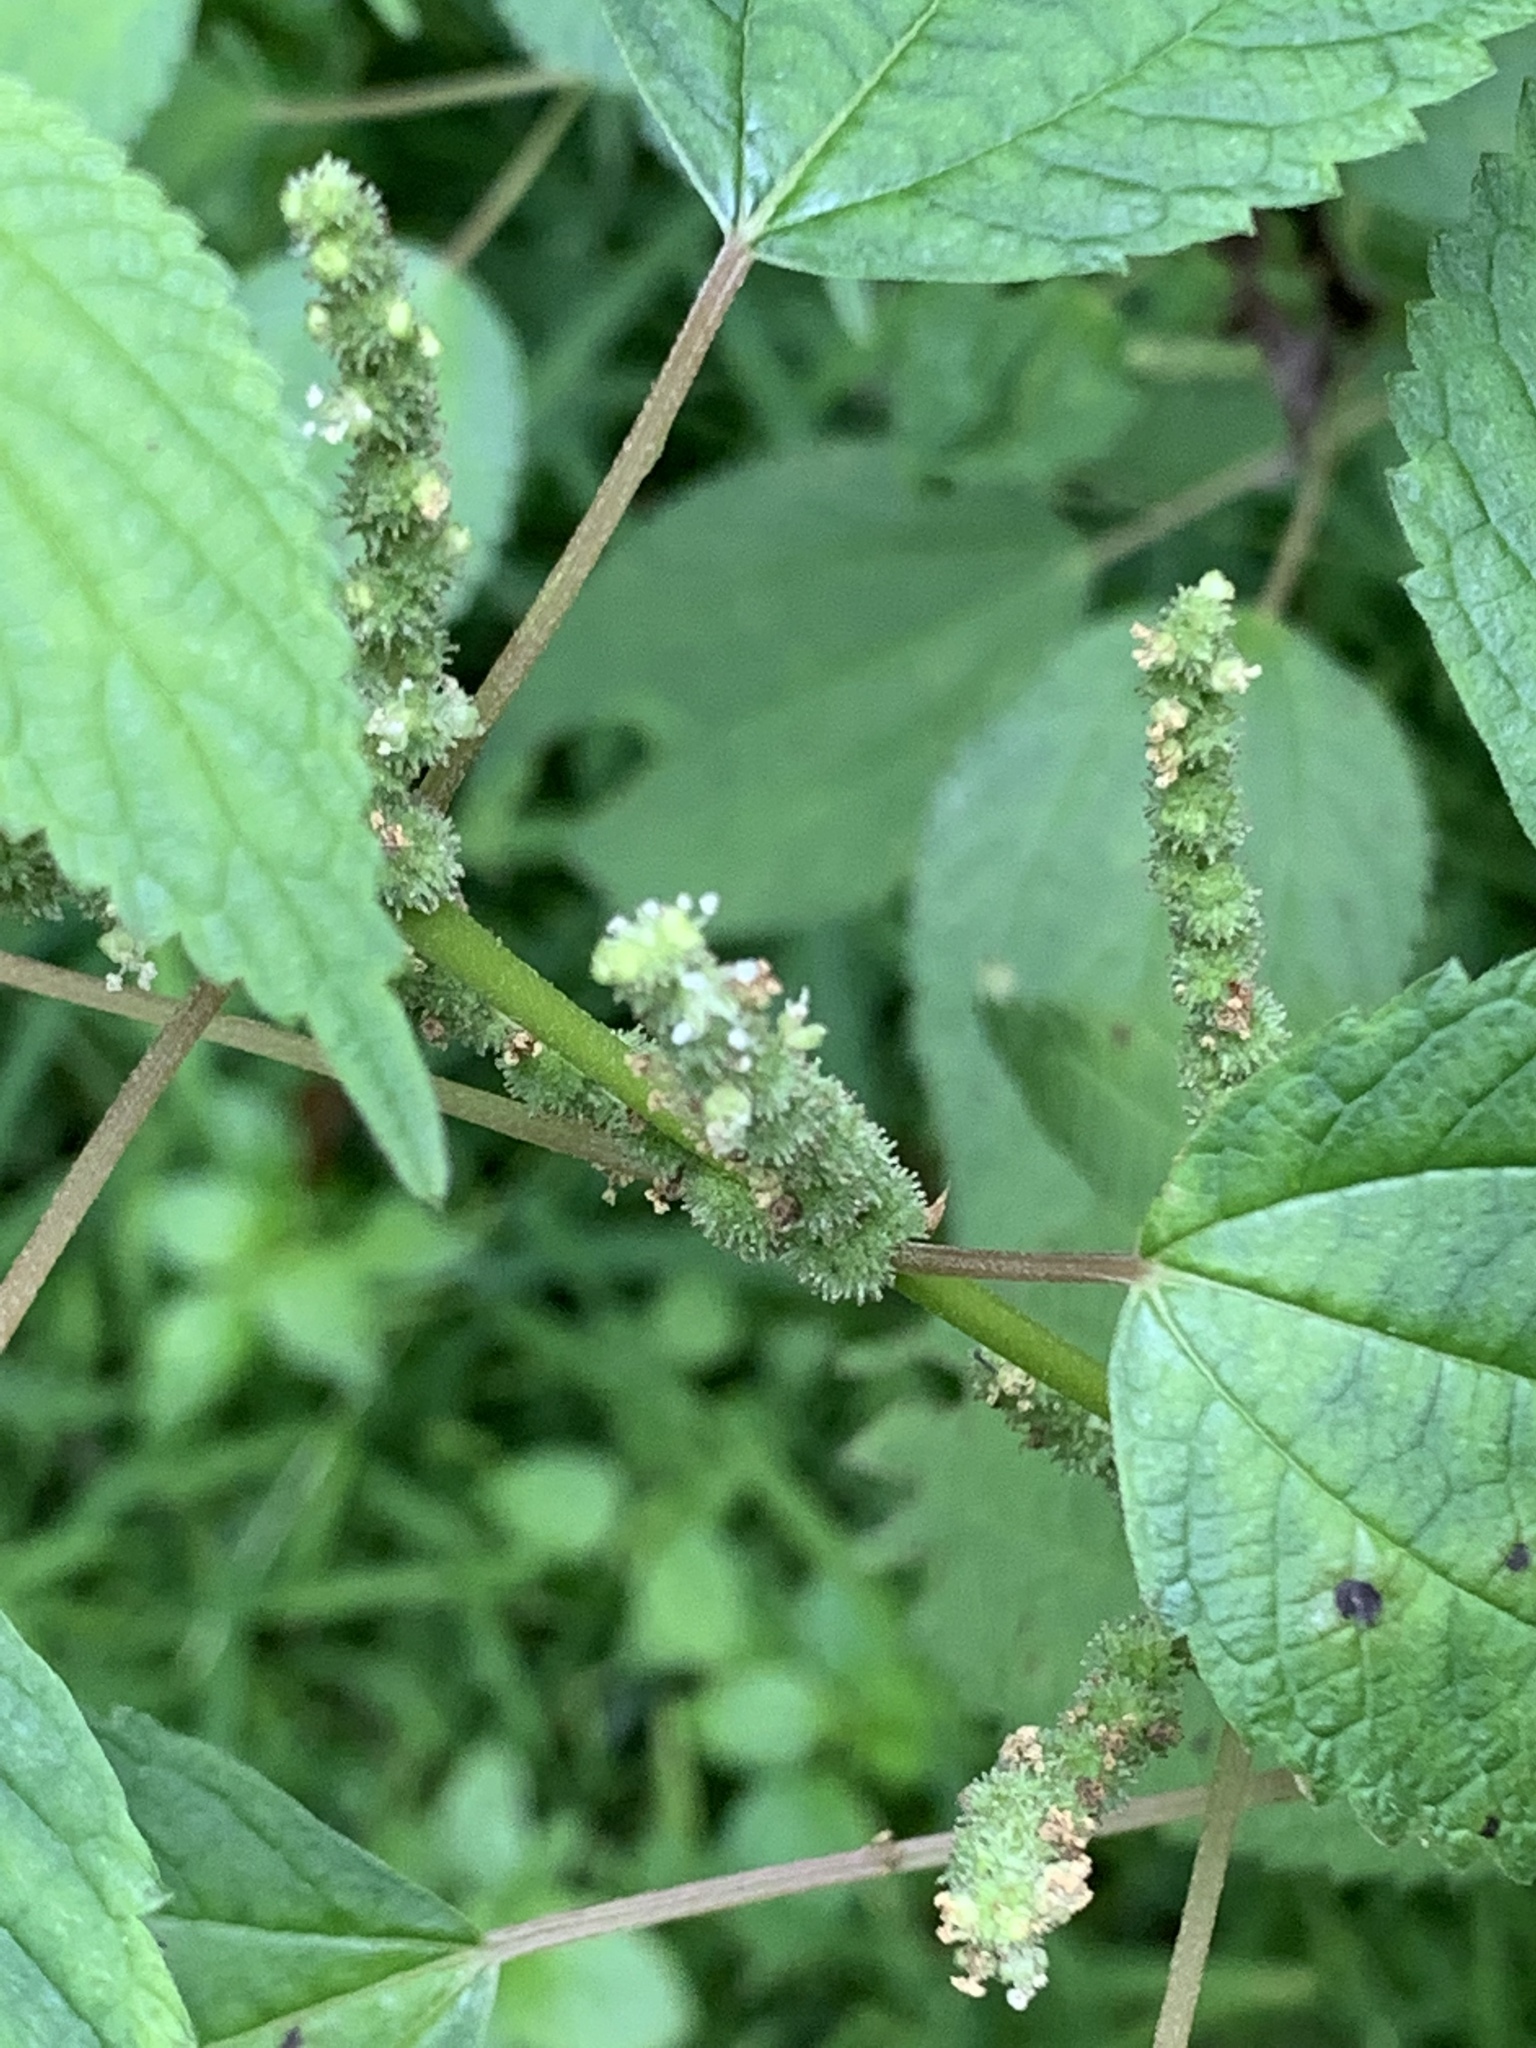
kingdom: Plantae
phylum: Tracheophyta
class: Magnoliopsida
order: Rosales
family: Urticaceae
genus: Boehmeria
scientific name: Boehmeria cylindrica
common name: Bog-hemp
